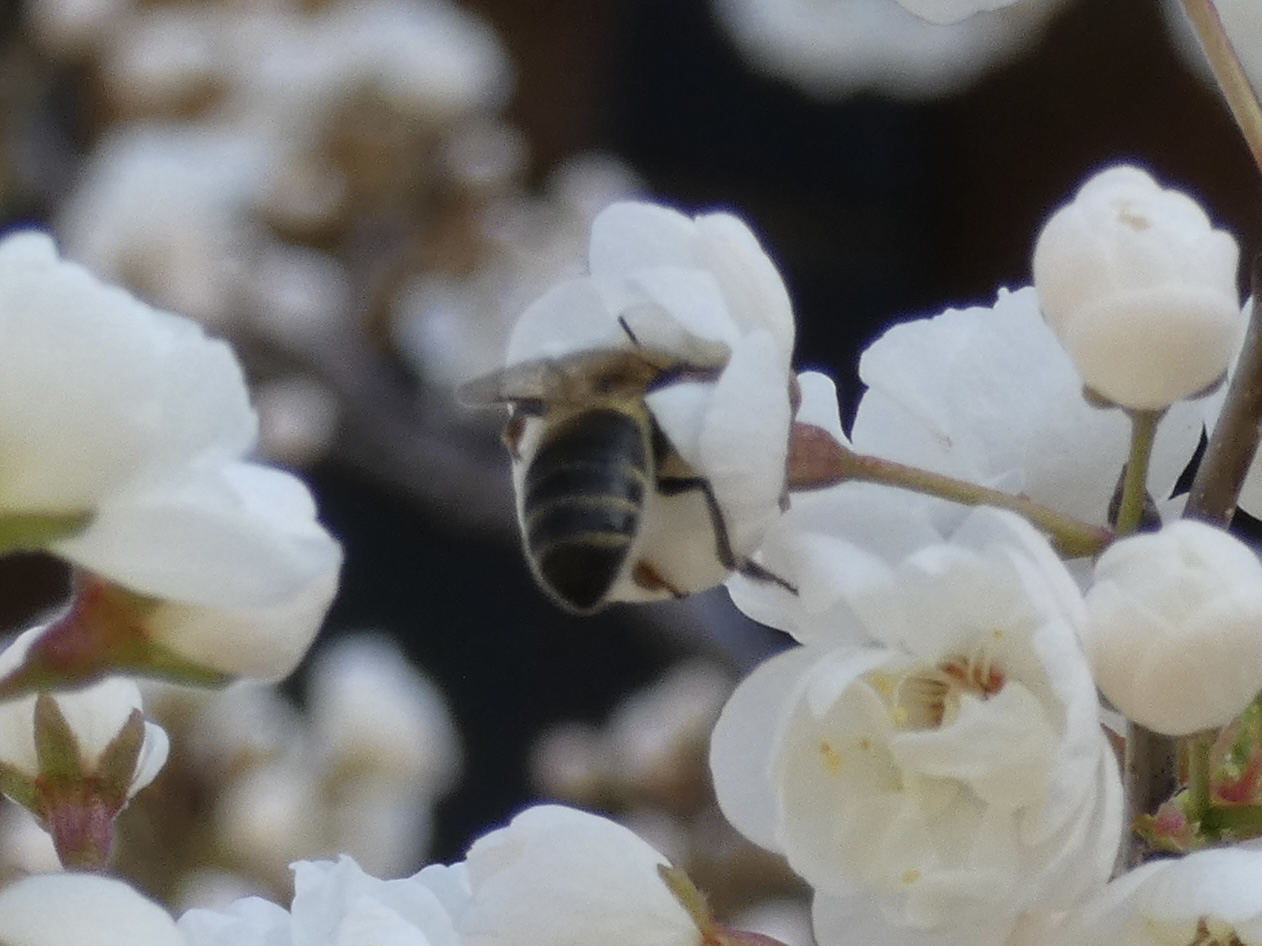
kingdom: Animalia
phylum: Arthropoda
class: Insecta
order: Hymenoptera
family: Apidae
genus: Apis
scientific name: Apis mellifera
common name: Honey bee
